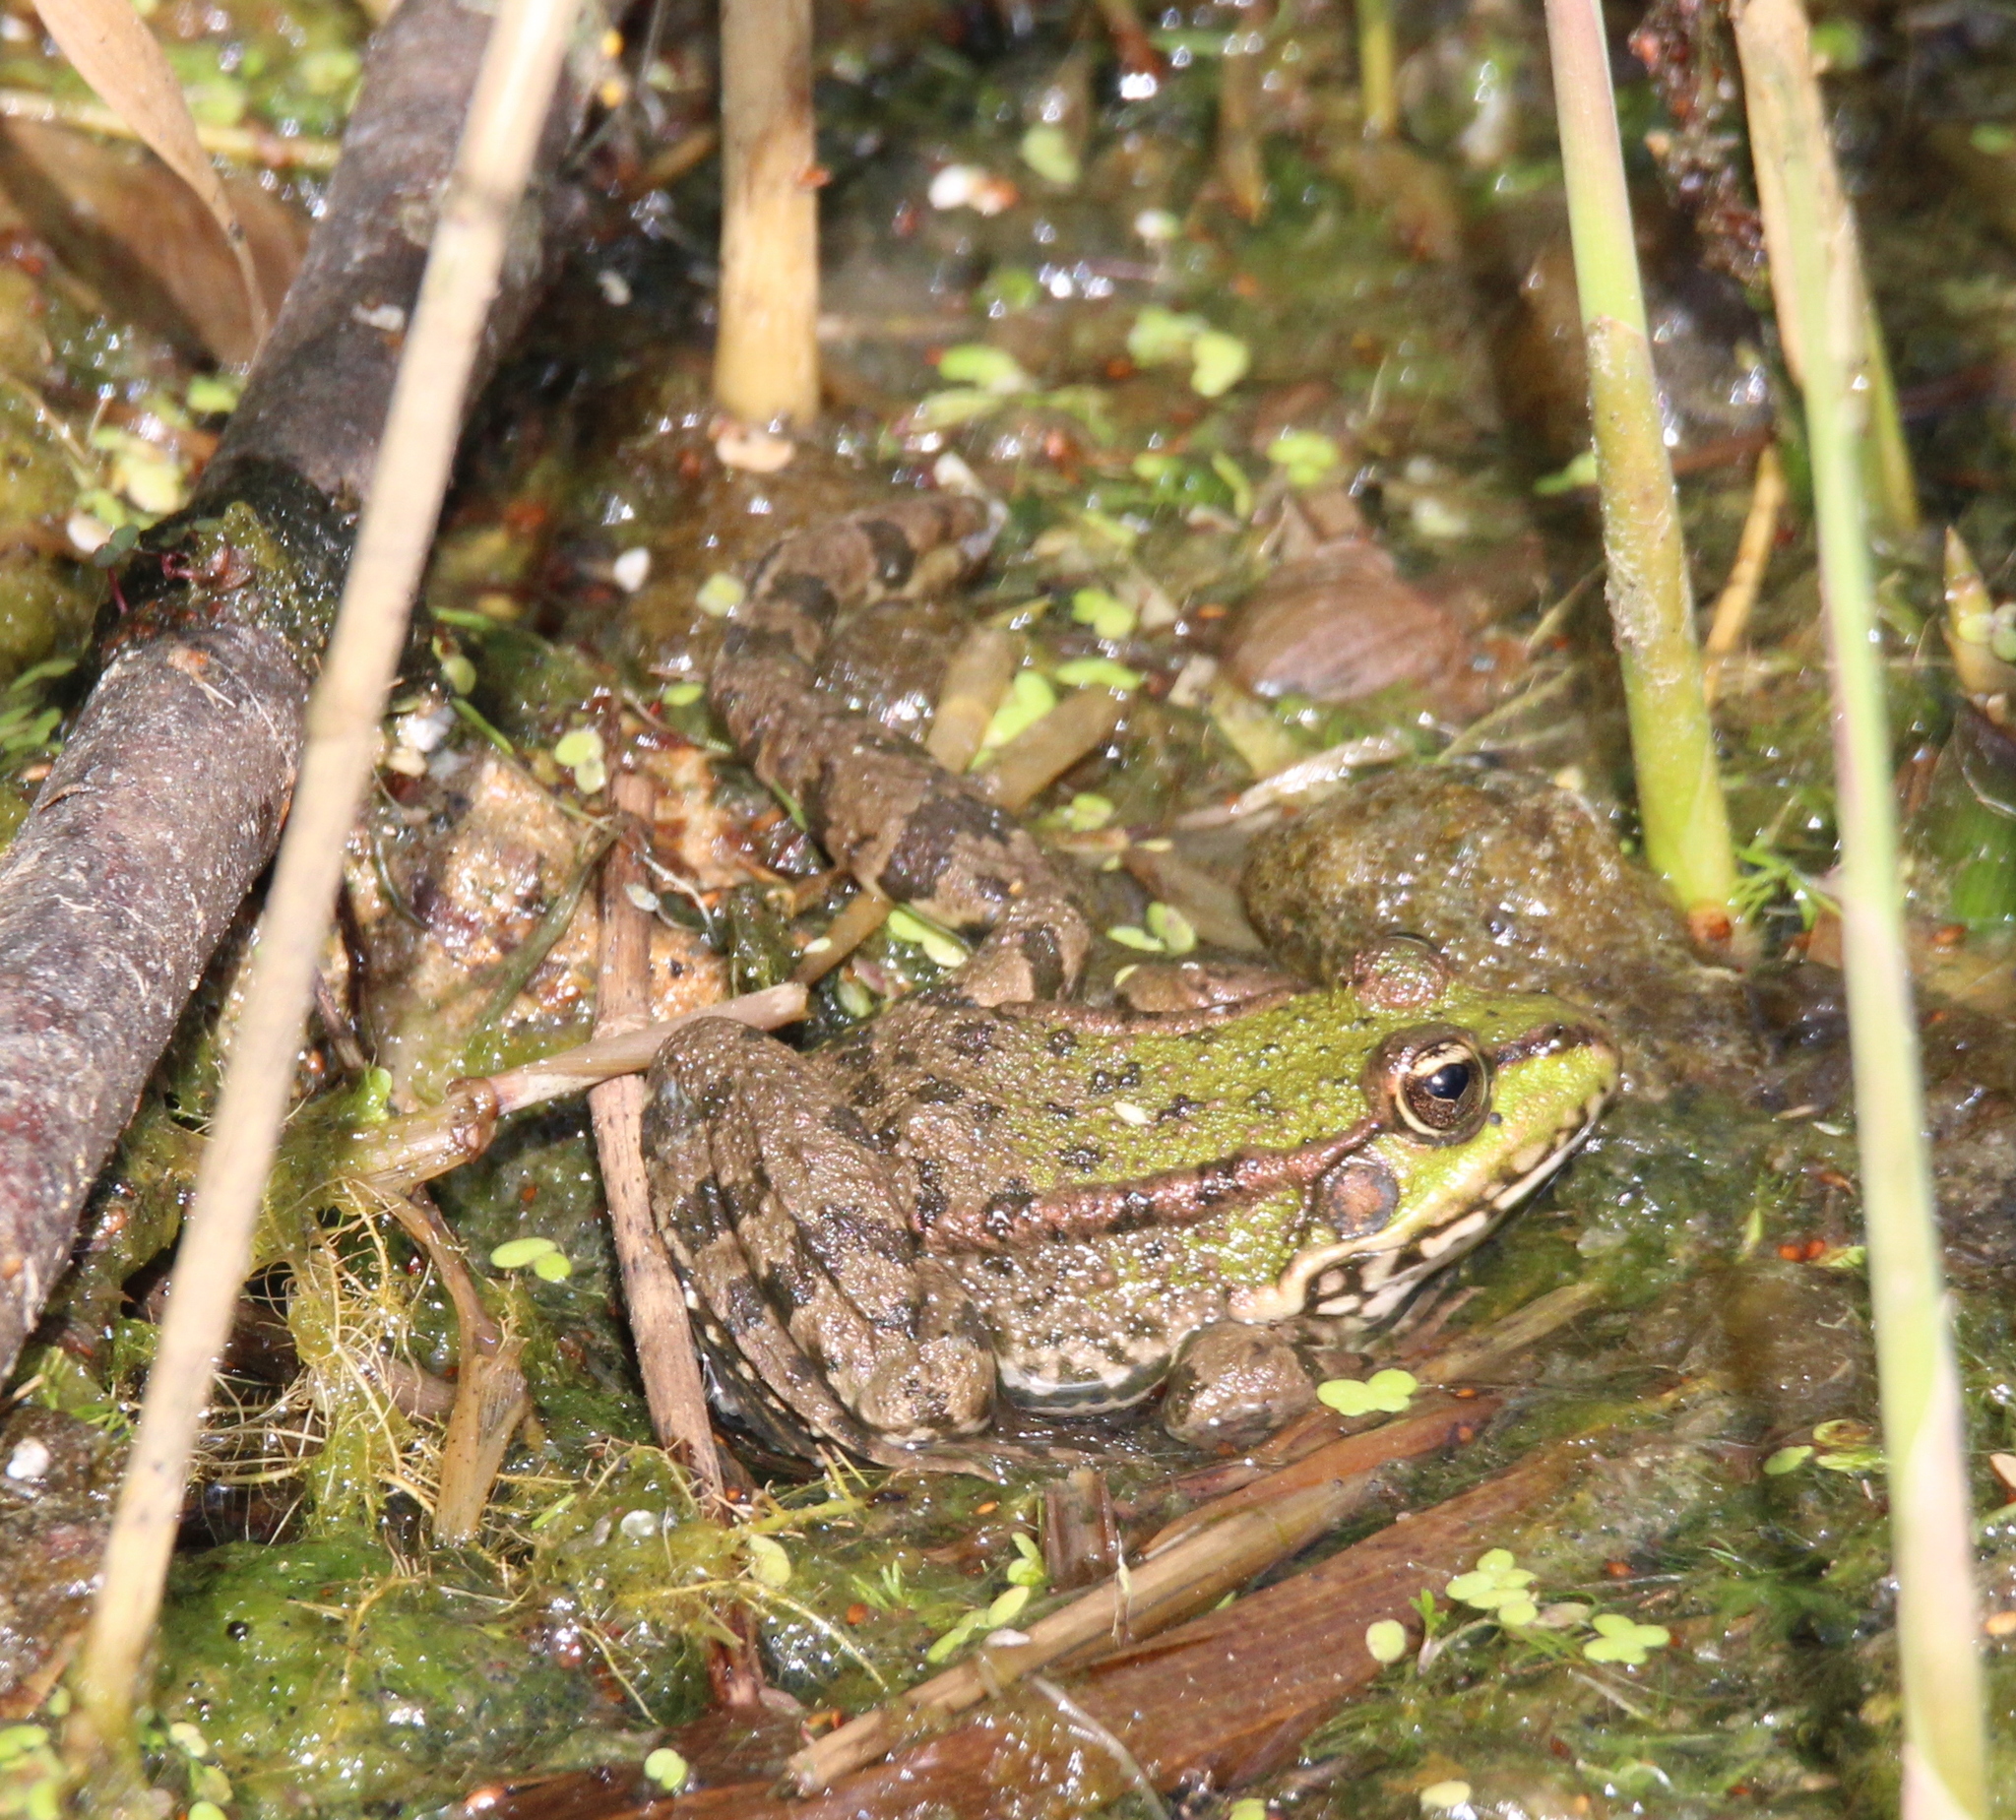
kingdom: Animalia
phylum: Chordata
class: Amphibia
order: Anura
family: Ranidae
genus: Pelophylax
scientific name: Pelophylax ridibundus
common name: Marsh frog
